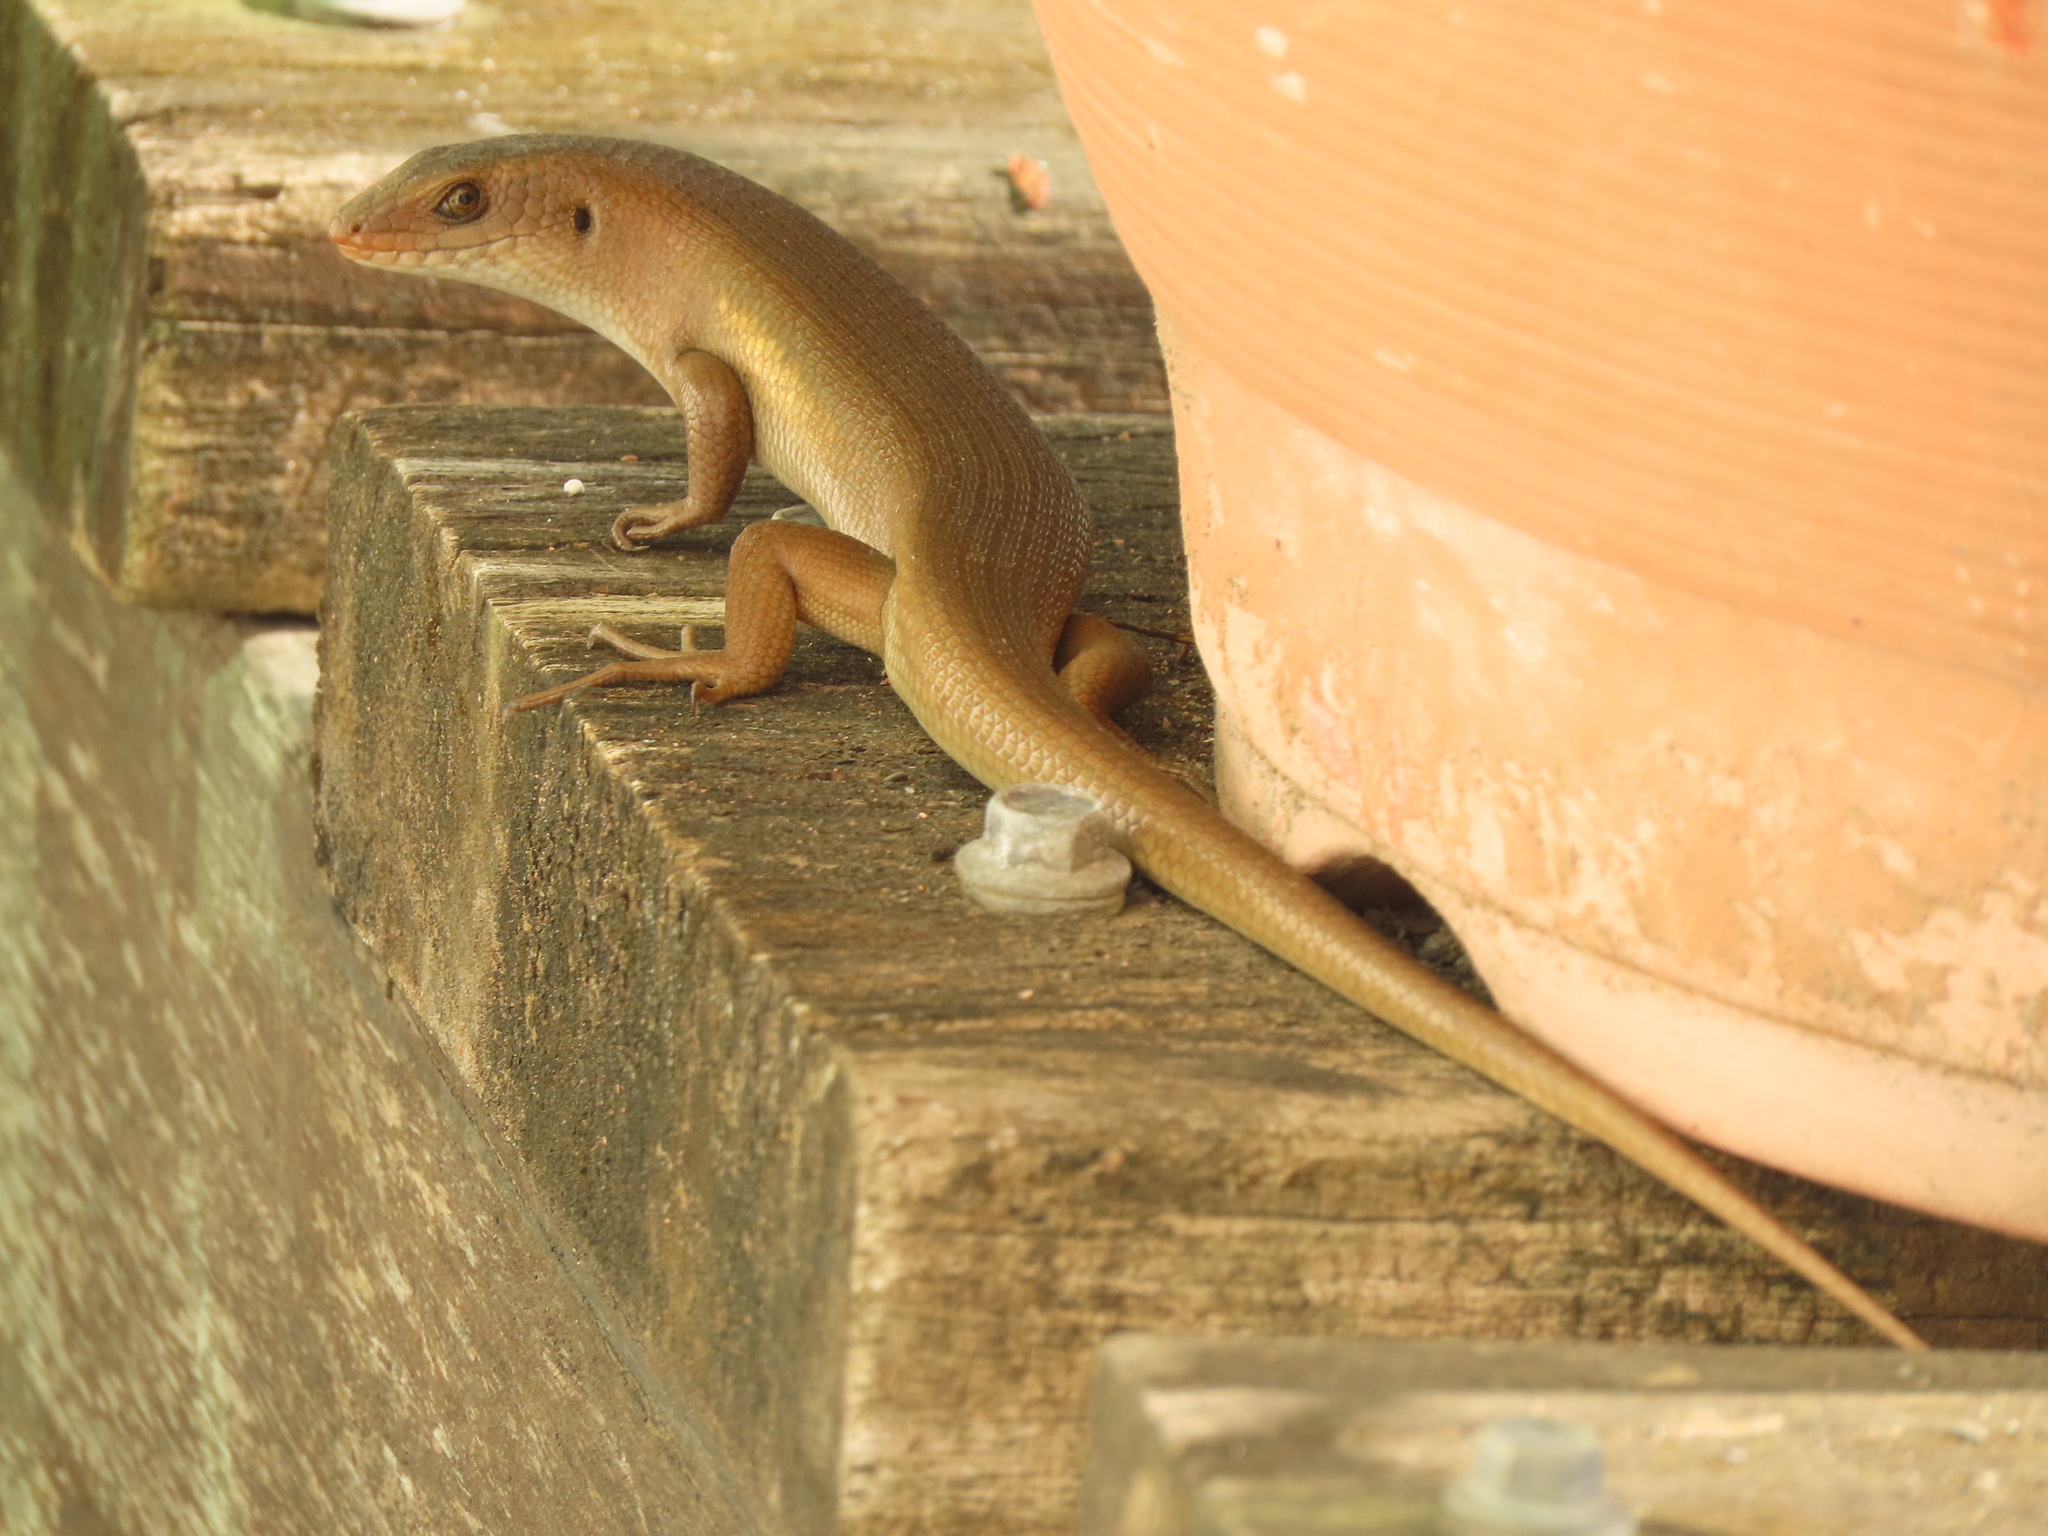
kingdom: Animalia
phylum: Chordata
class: Squamata
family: Scincidae
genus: Eutropis
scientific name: Eutropis multifasciata
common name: Common mabuya
